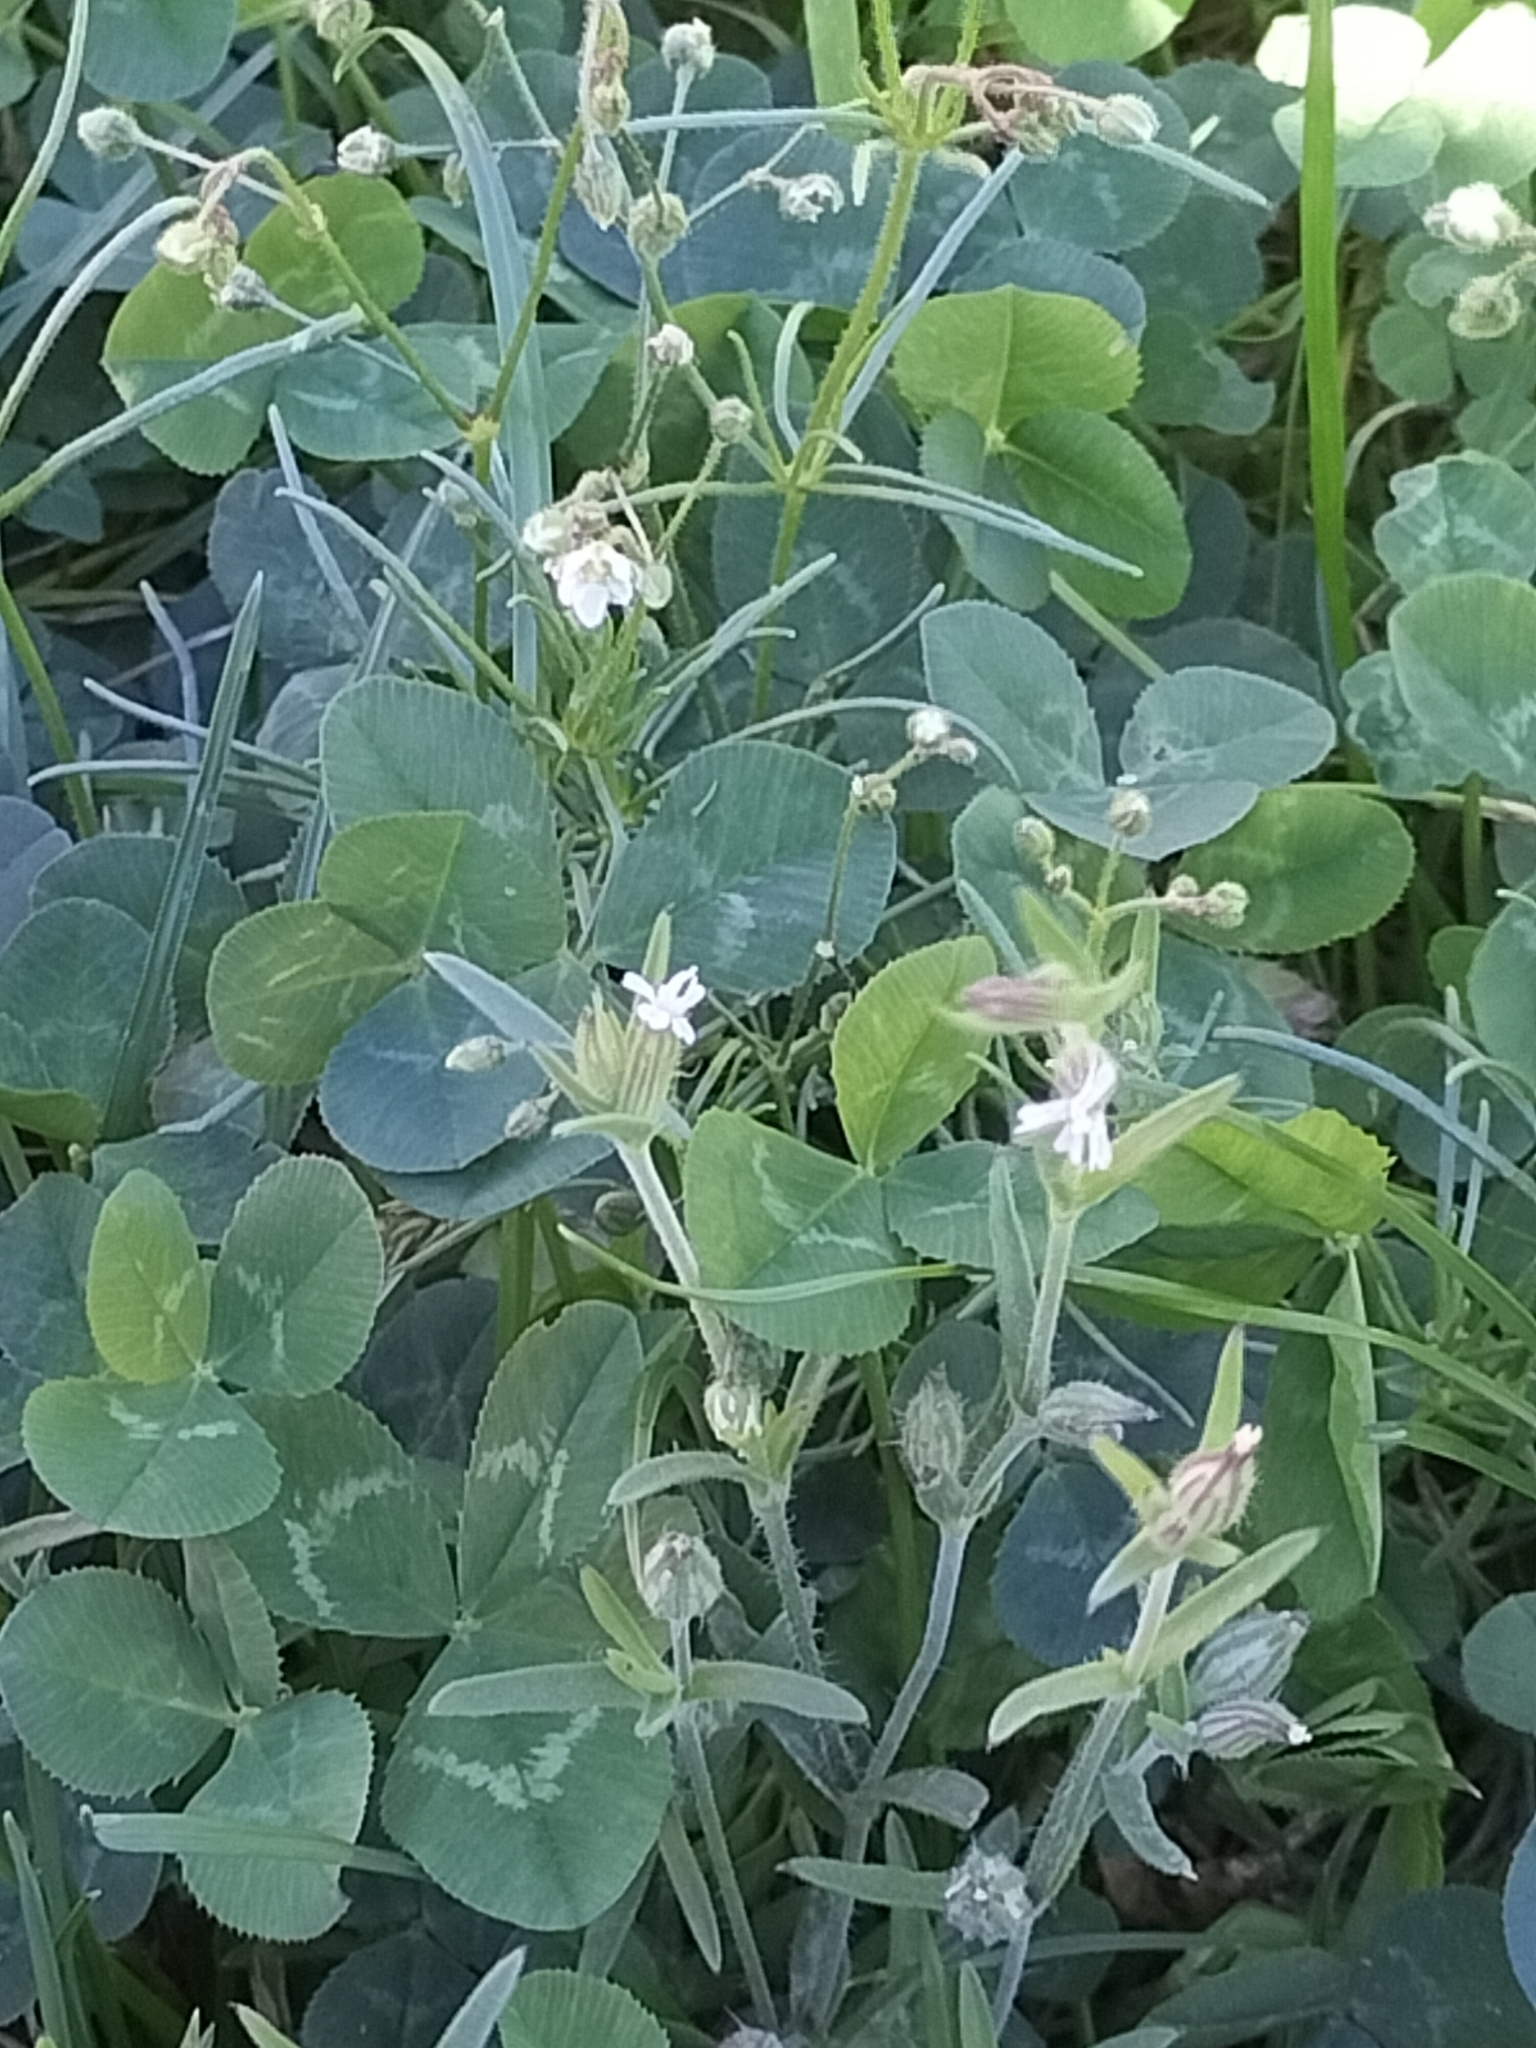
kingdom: Plantae
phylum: Tracheophyta
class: Magnoliopsida
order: Caryophyllales
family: Caryophyllaceae
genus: Spergula
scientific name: Spergula arvensis
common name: Corn spurrey
